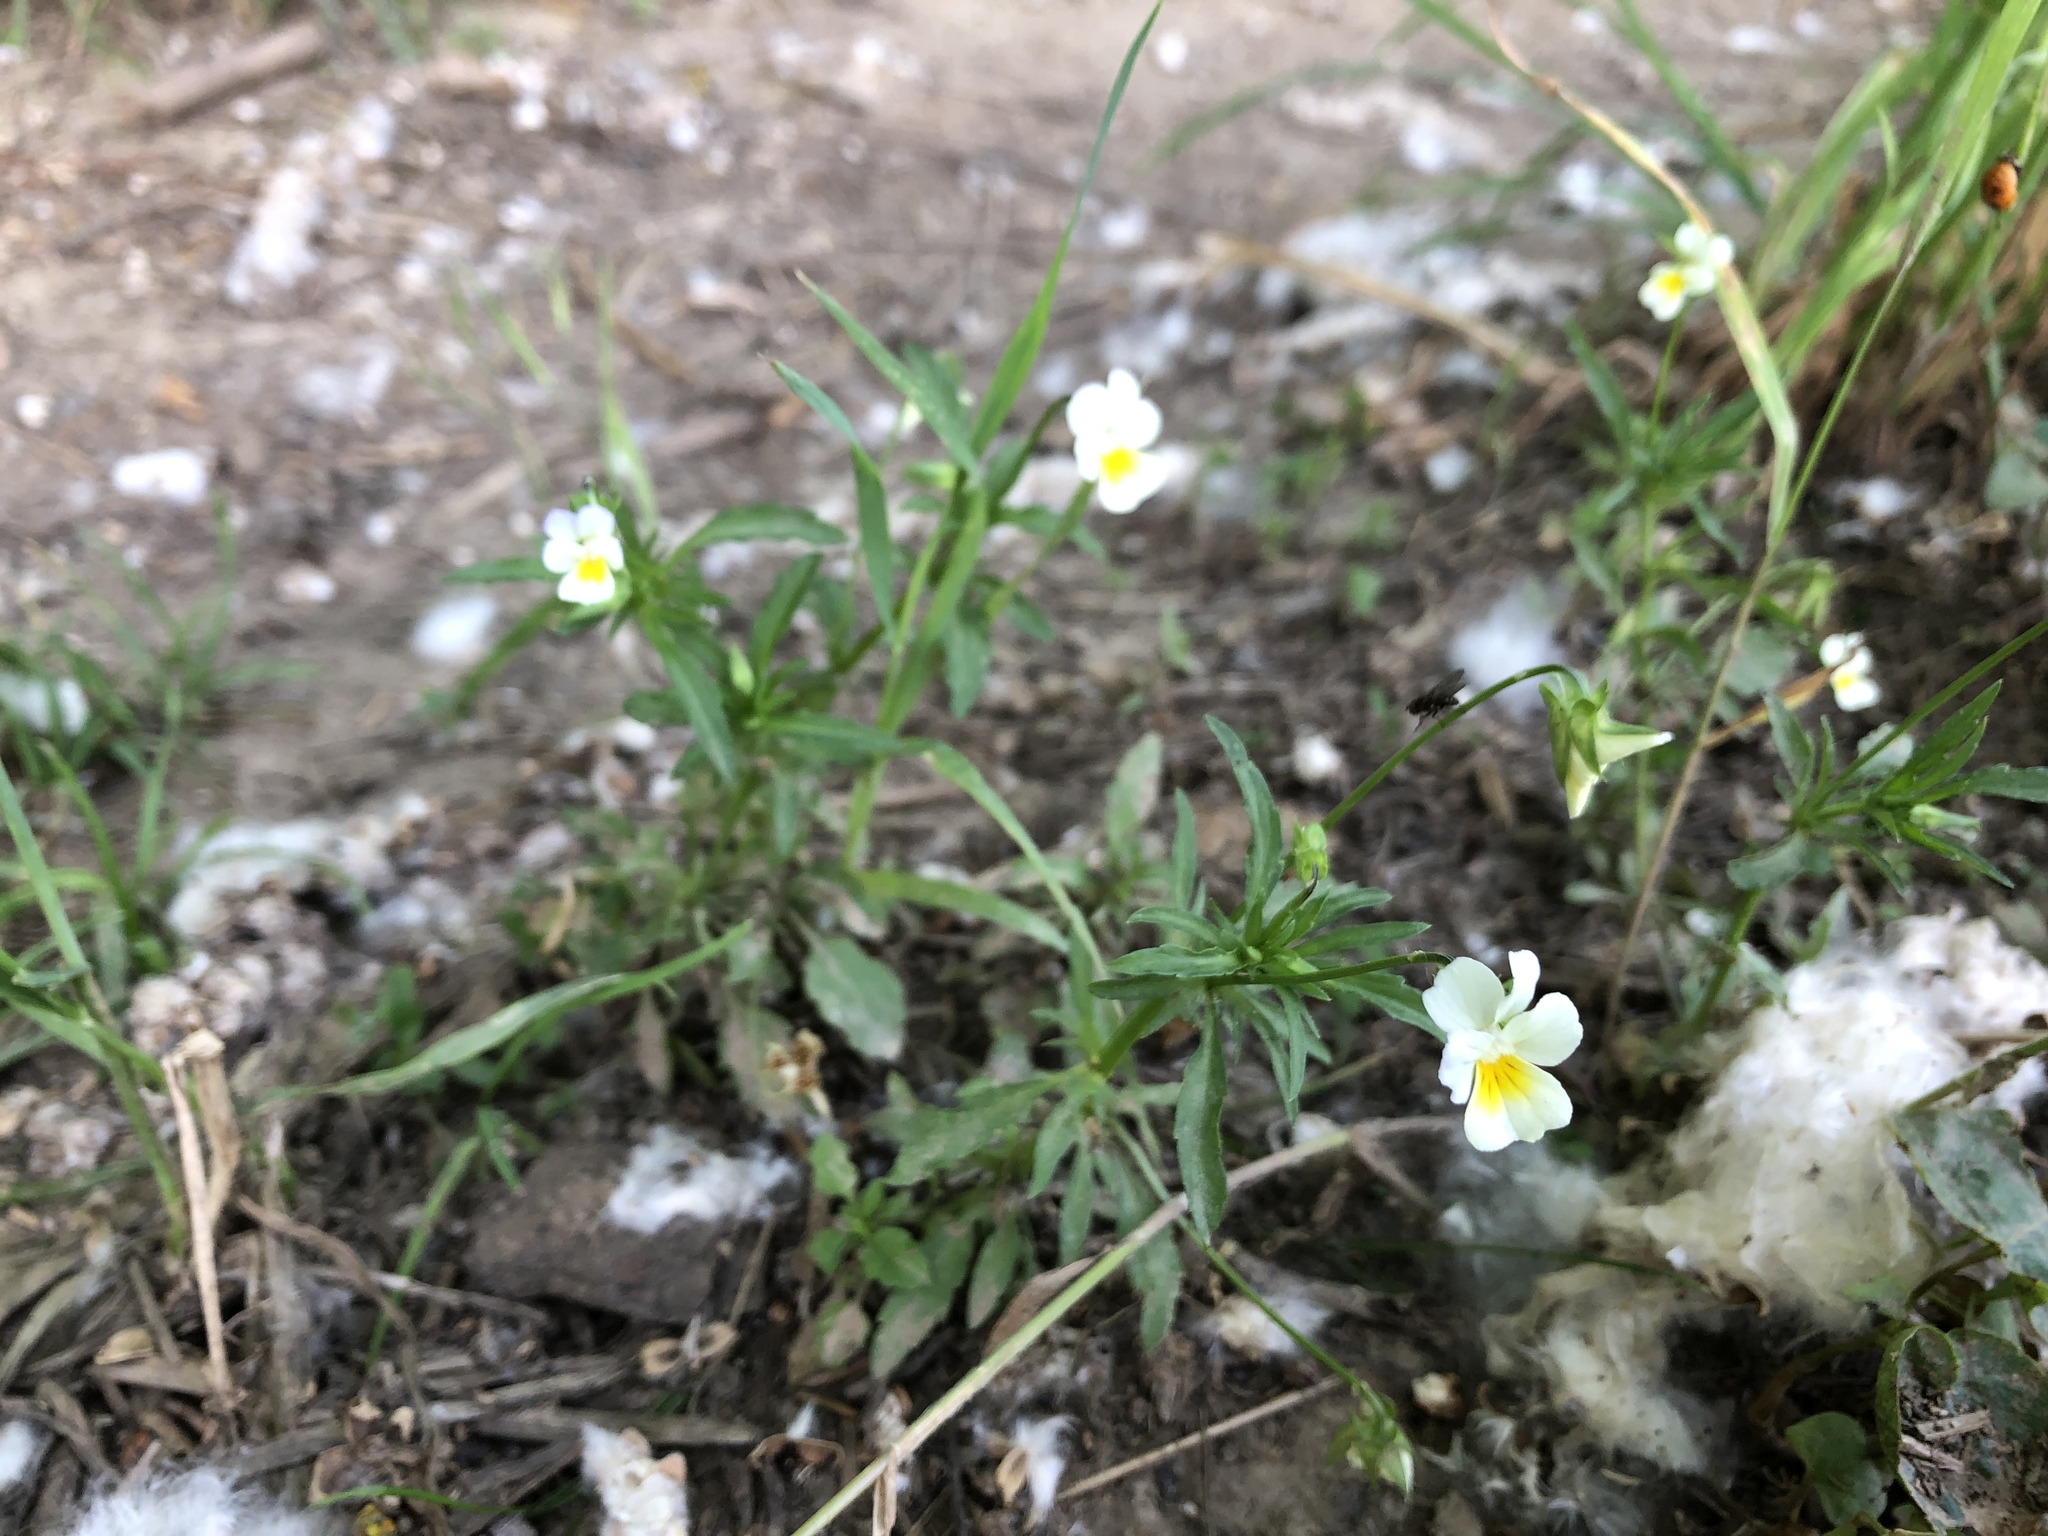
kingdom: Plantae
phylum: Tracheophyta
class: Magnoliopsida
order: Malpighiales
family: Violaceae
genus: Viola
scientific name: Viola arvensis
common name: Field pansy
